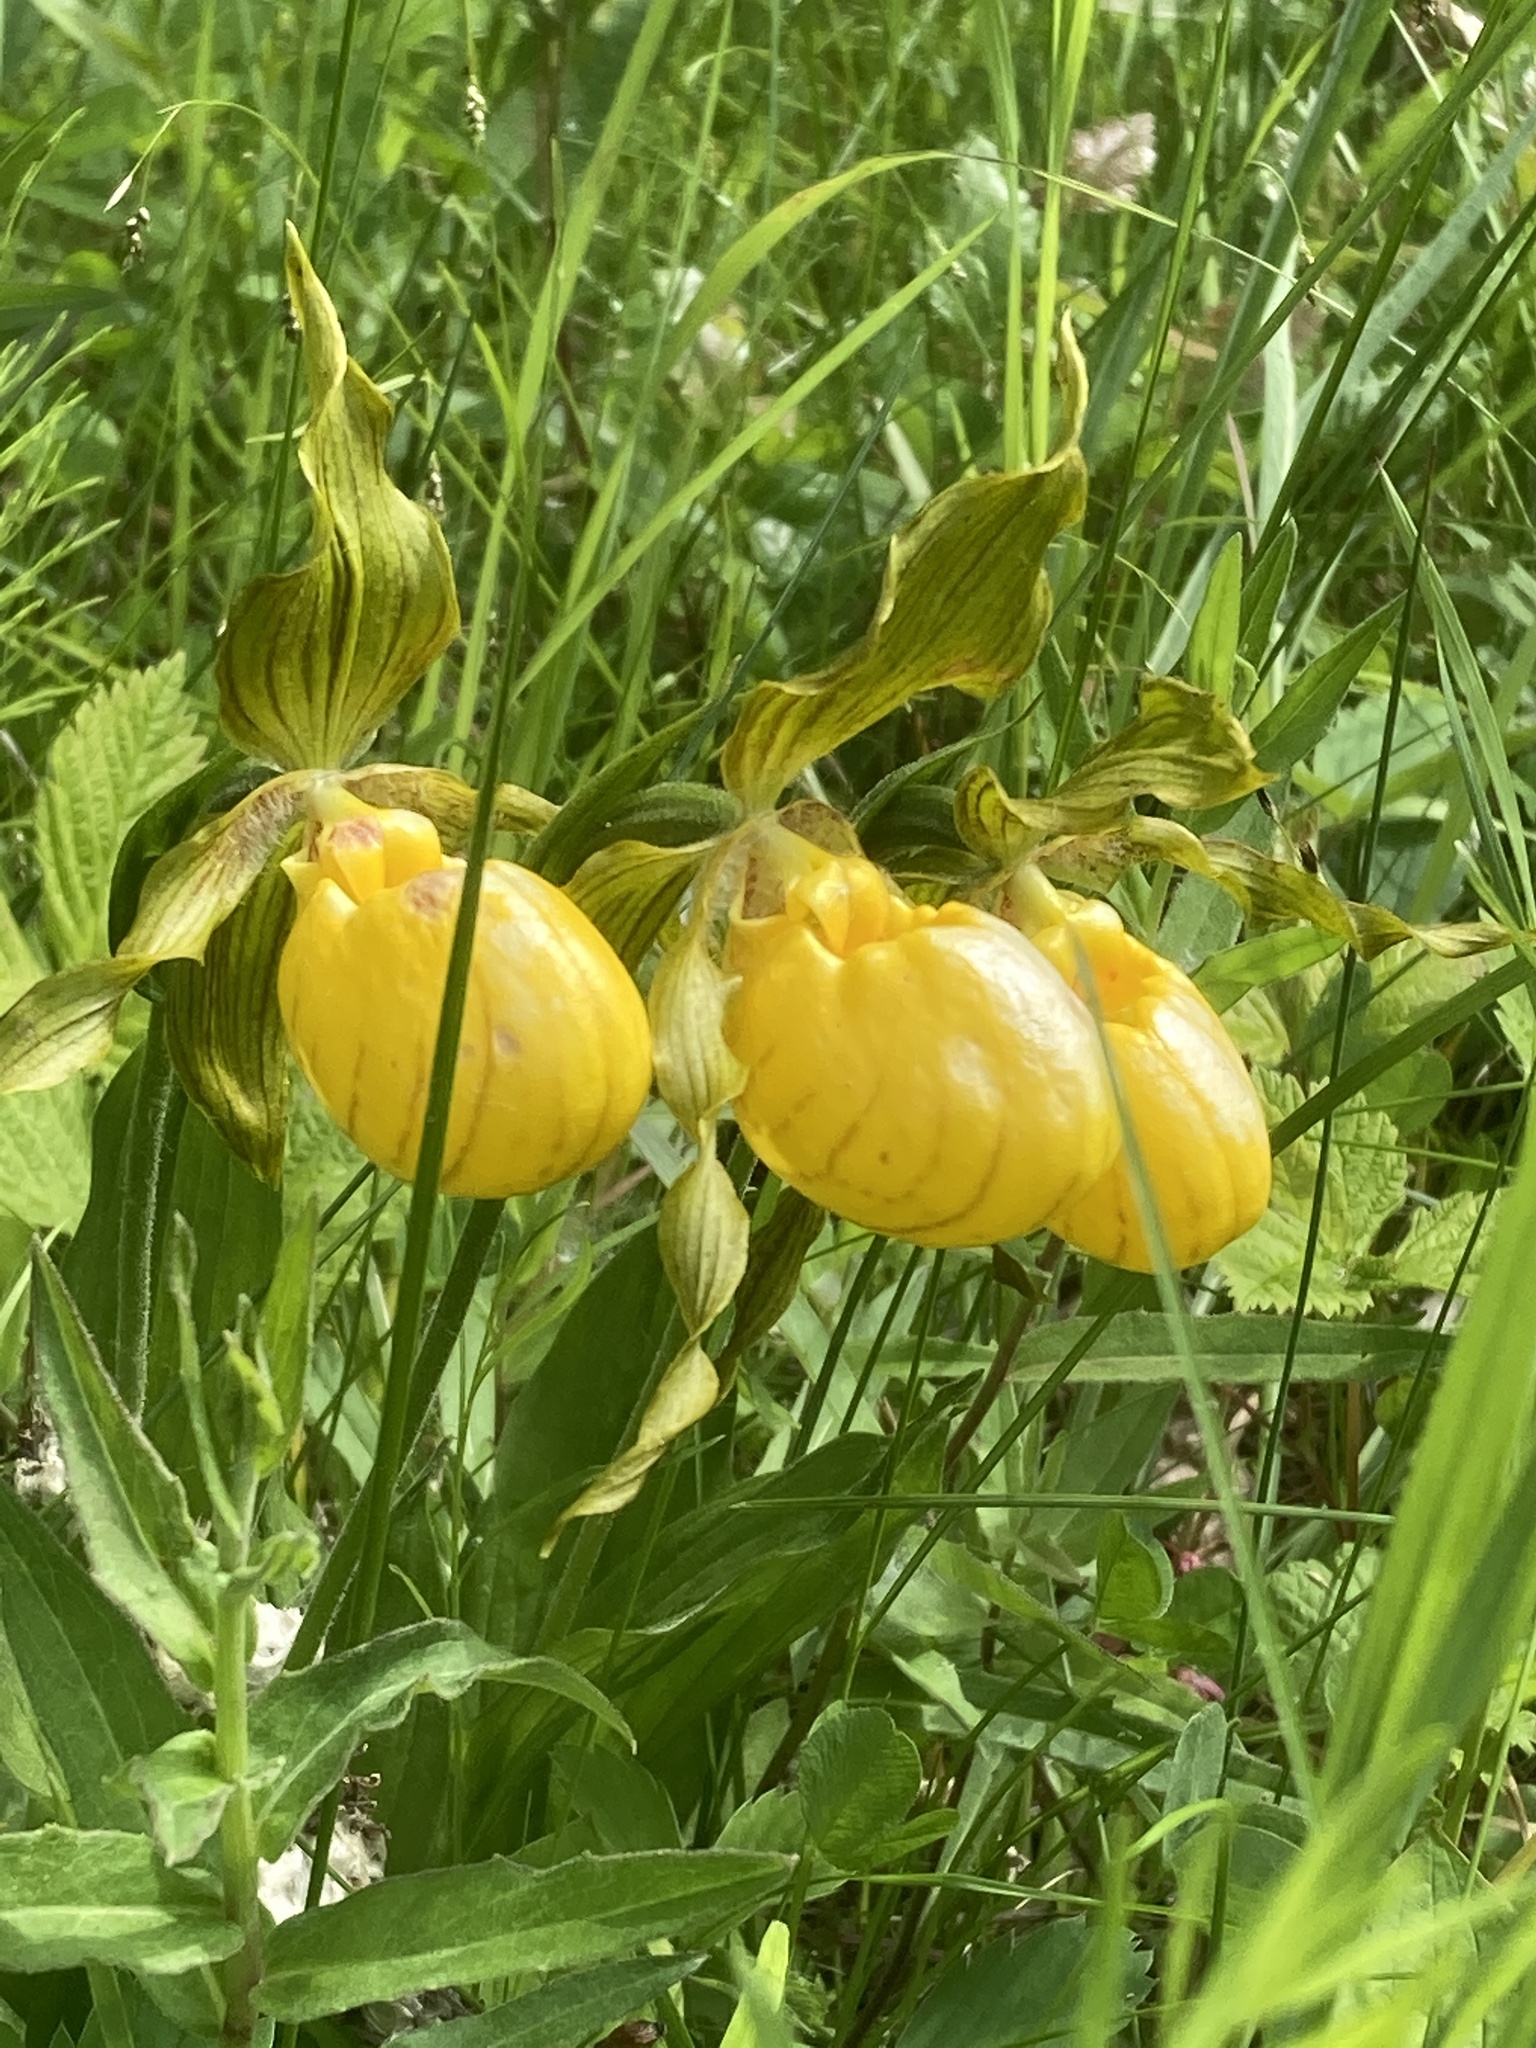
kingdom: Plantae
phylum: Tracheophyta
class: Liliopsida
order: Asparagales
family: Orchidaceae
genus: Cypripedium
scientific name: Cypripedium parviflorum
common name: American yellow lady's-slipper
